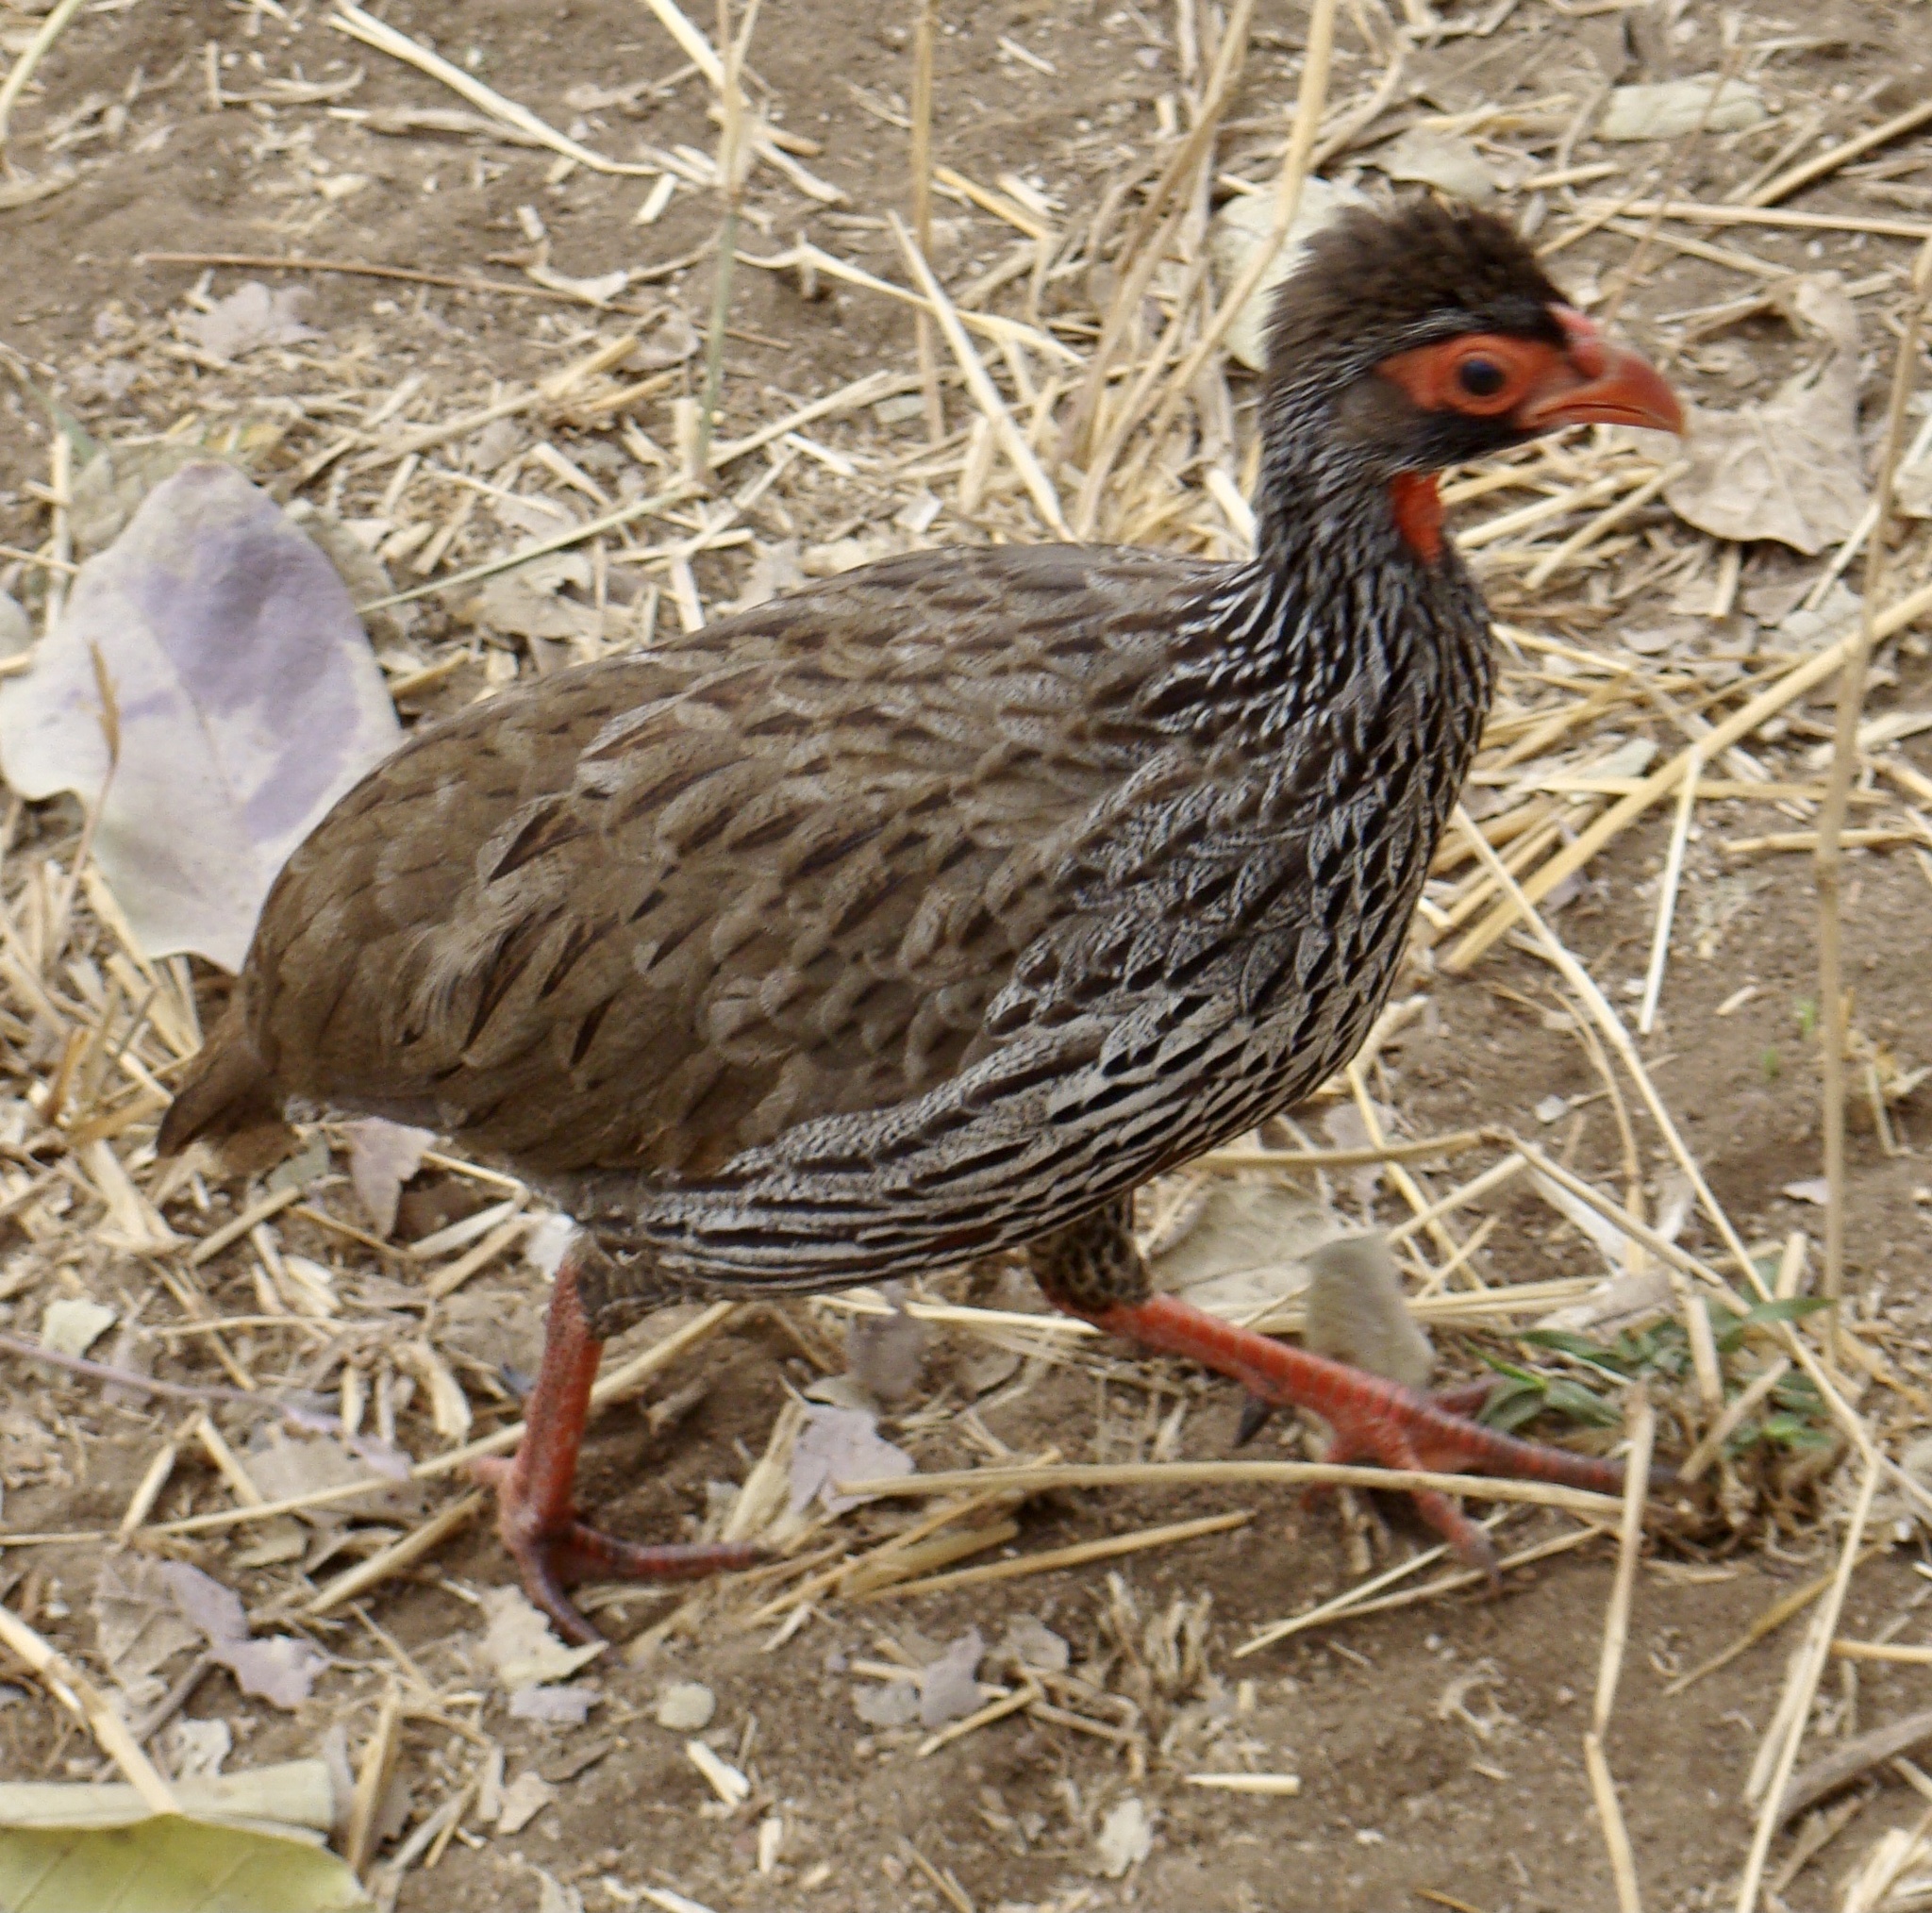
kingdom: Animalia
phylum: Chordata
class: Aves
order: Galliformes
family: Phasianidae
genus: Pternistis
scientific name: Pternistis afer
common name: Red-necked spurfowl
